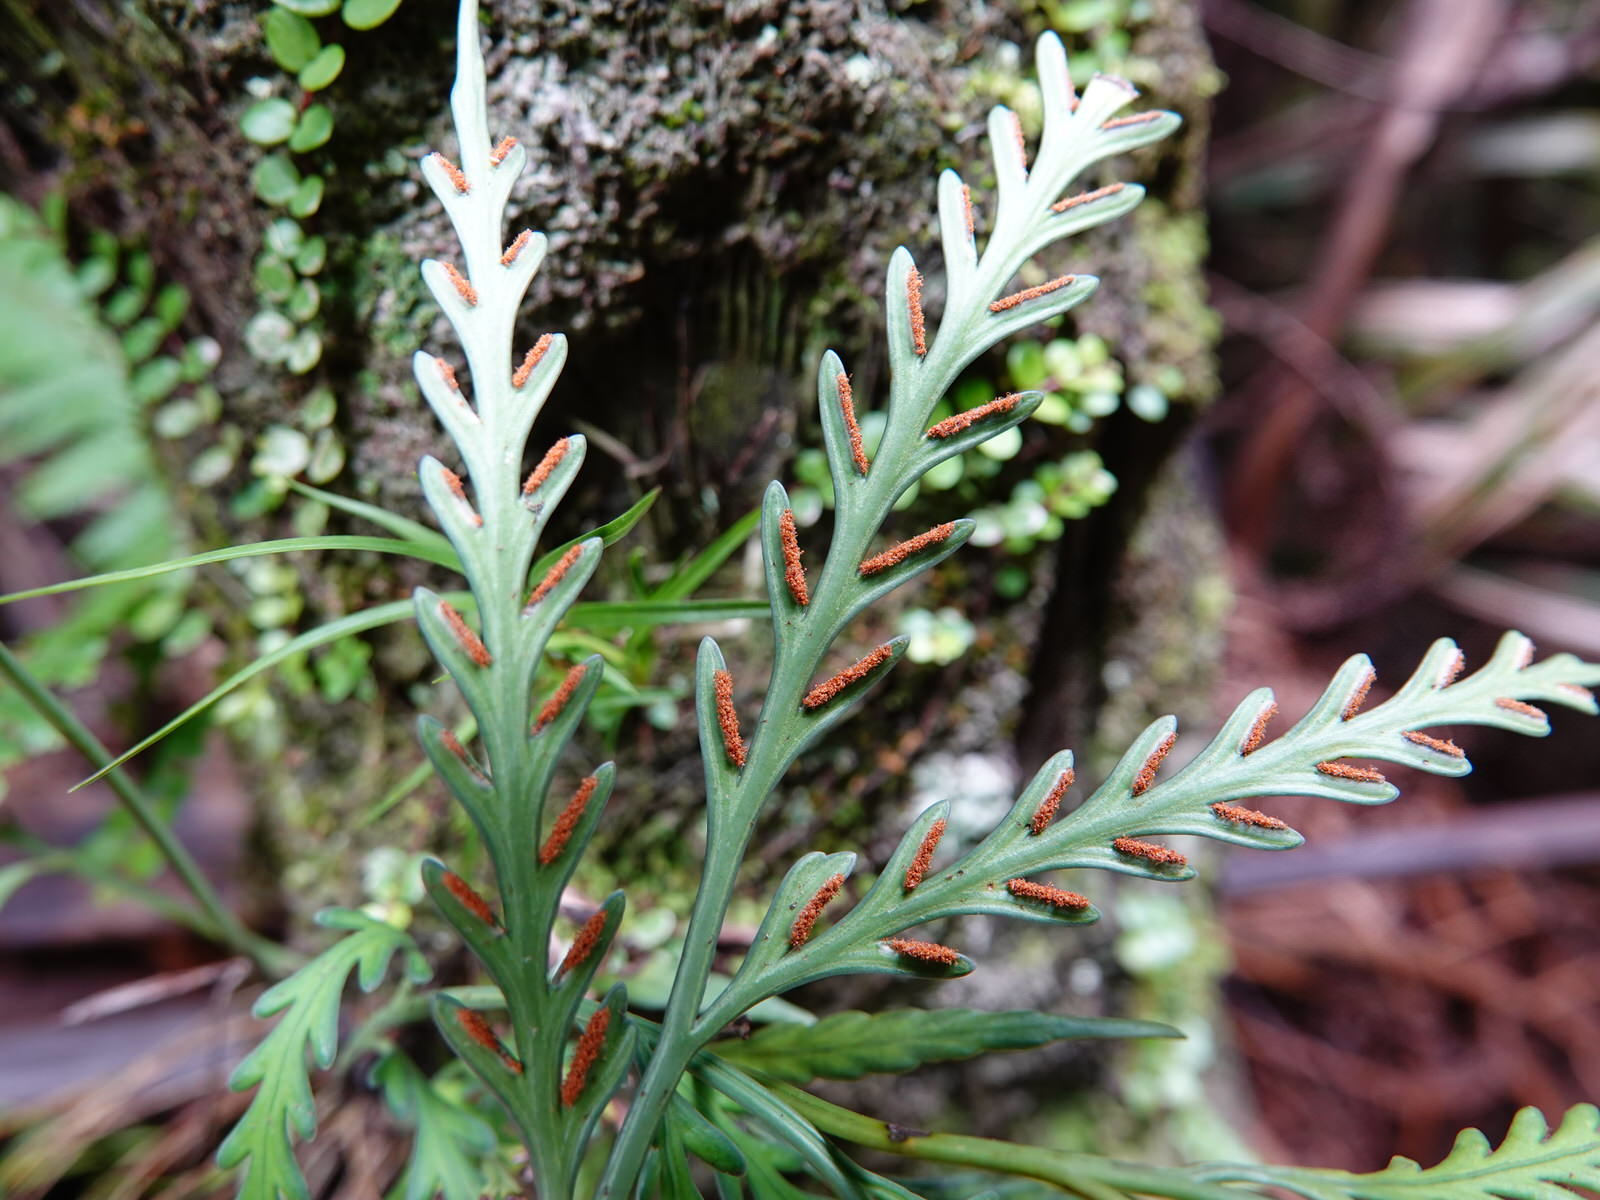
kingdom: Plantae
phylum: Tracheophyta
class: Polypodiopsida
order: Polypodiales
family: Aspleniaceae
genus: Asplenium
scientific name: Asplenium flaccidum
